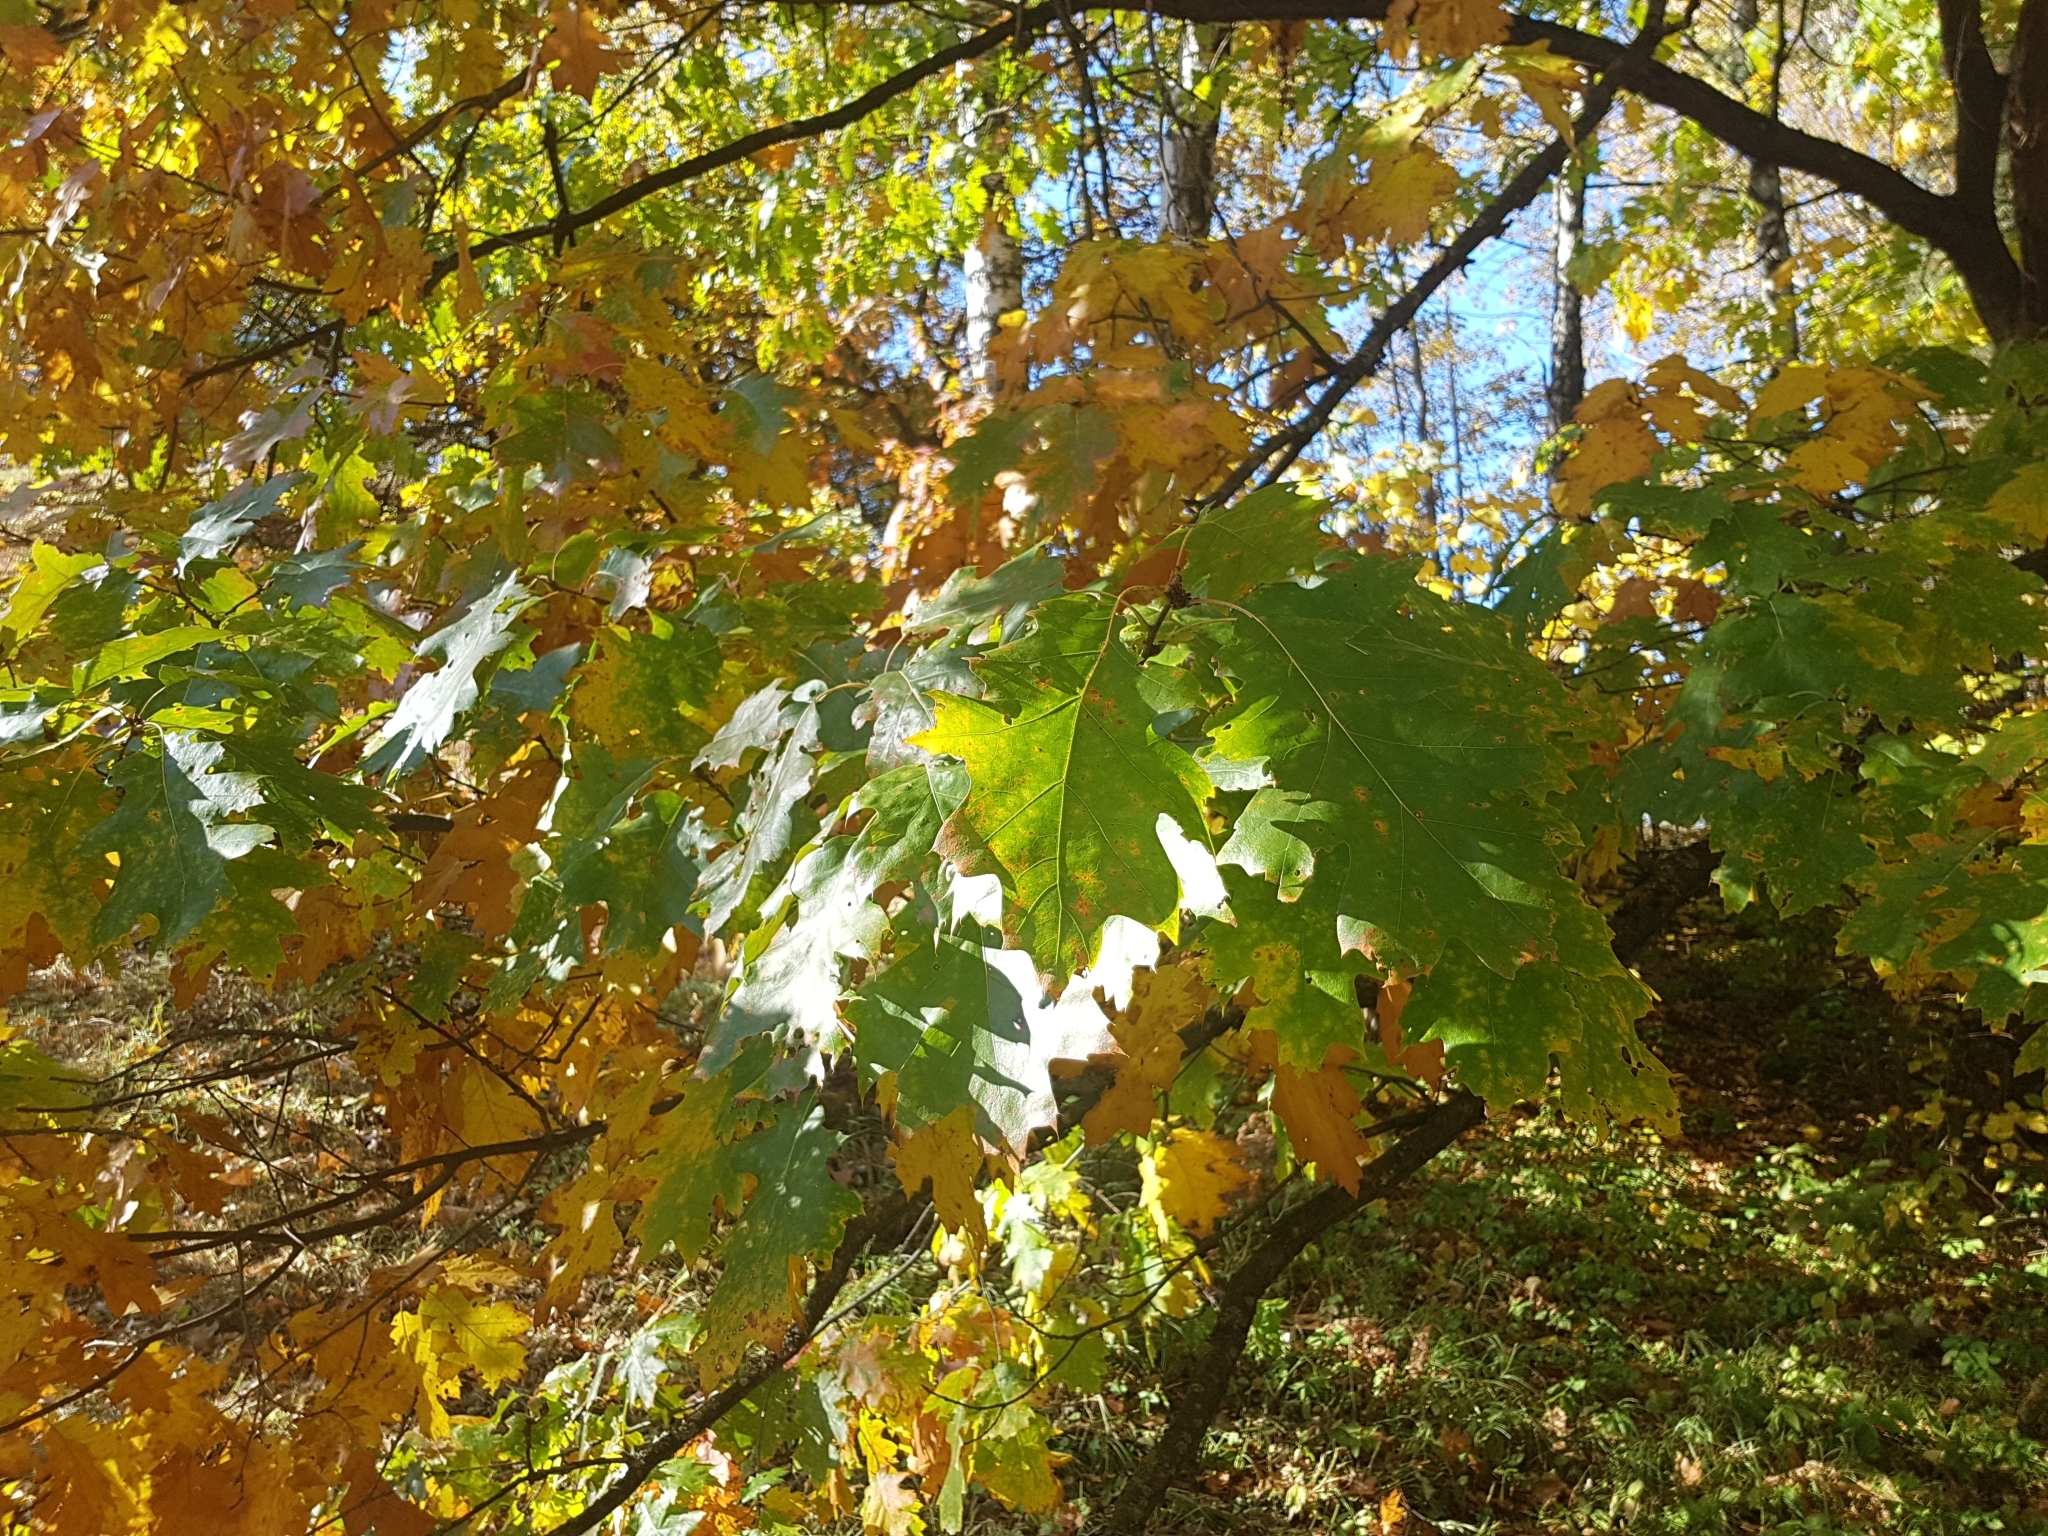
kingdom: Plantae
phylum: Tracheophyta
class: Magnoliopsida
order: Fagales
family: Fagaceae
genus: Quercus
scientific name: Quercus rubra
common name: Red oak
